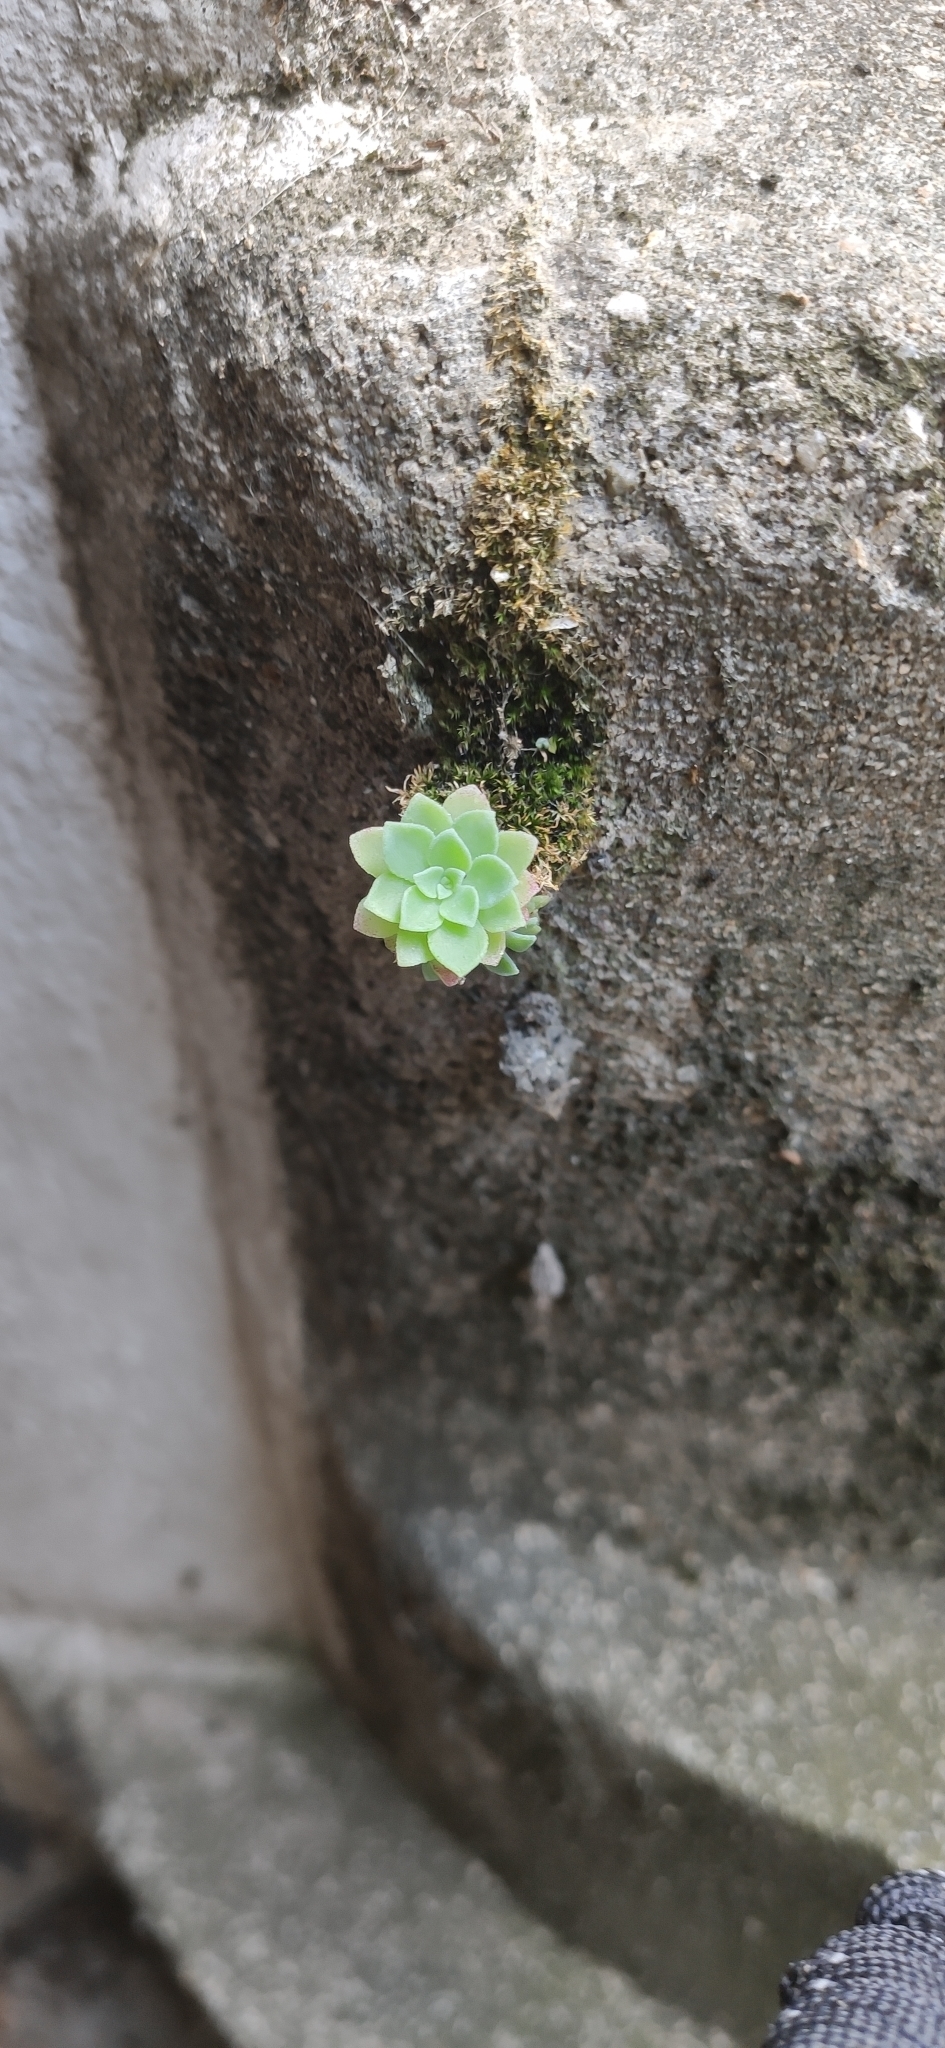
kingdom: Plantae
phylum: Tracheophyta
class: Magnoliopsida
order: Saxifragales
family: Crassulaceae
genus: Sedum
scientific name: Sedum palmeri
